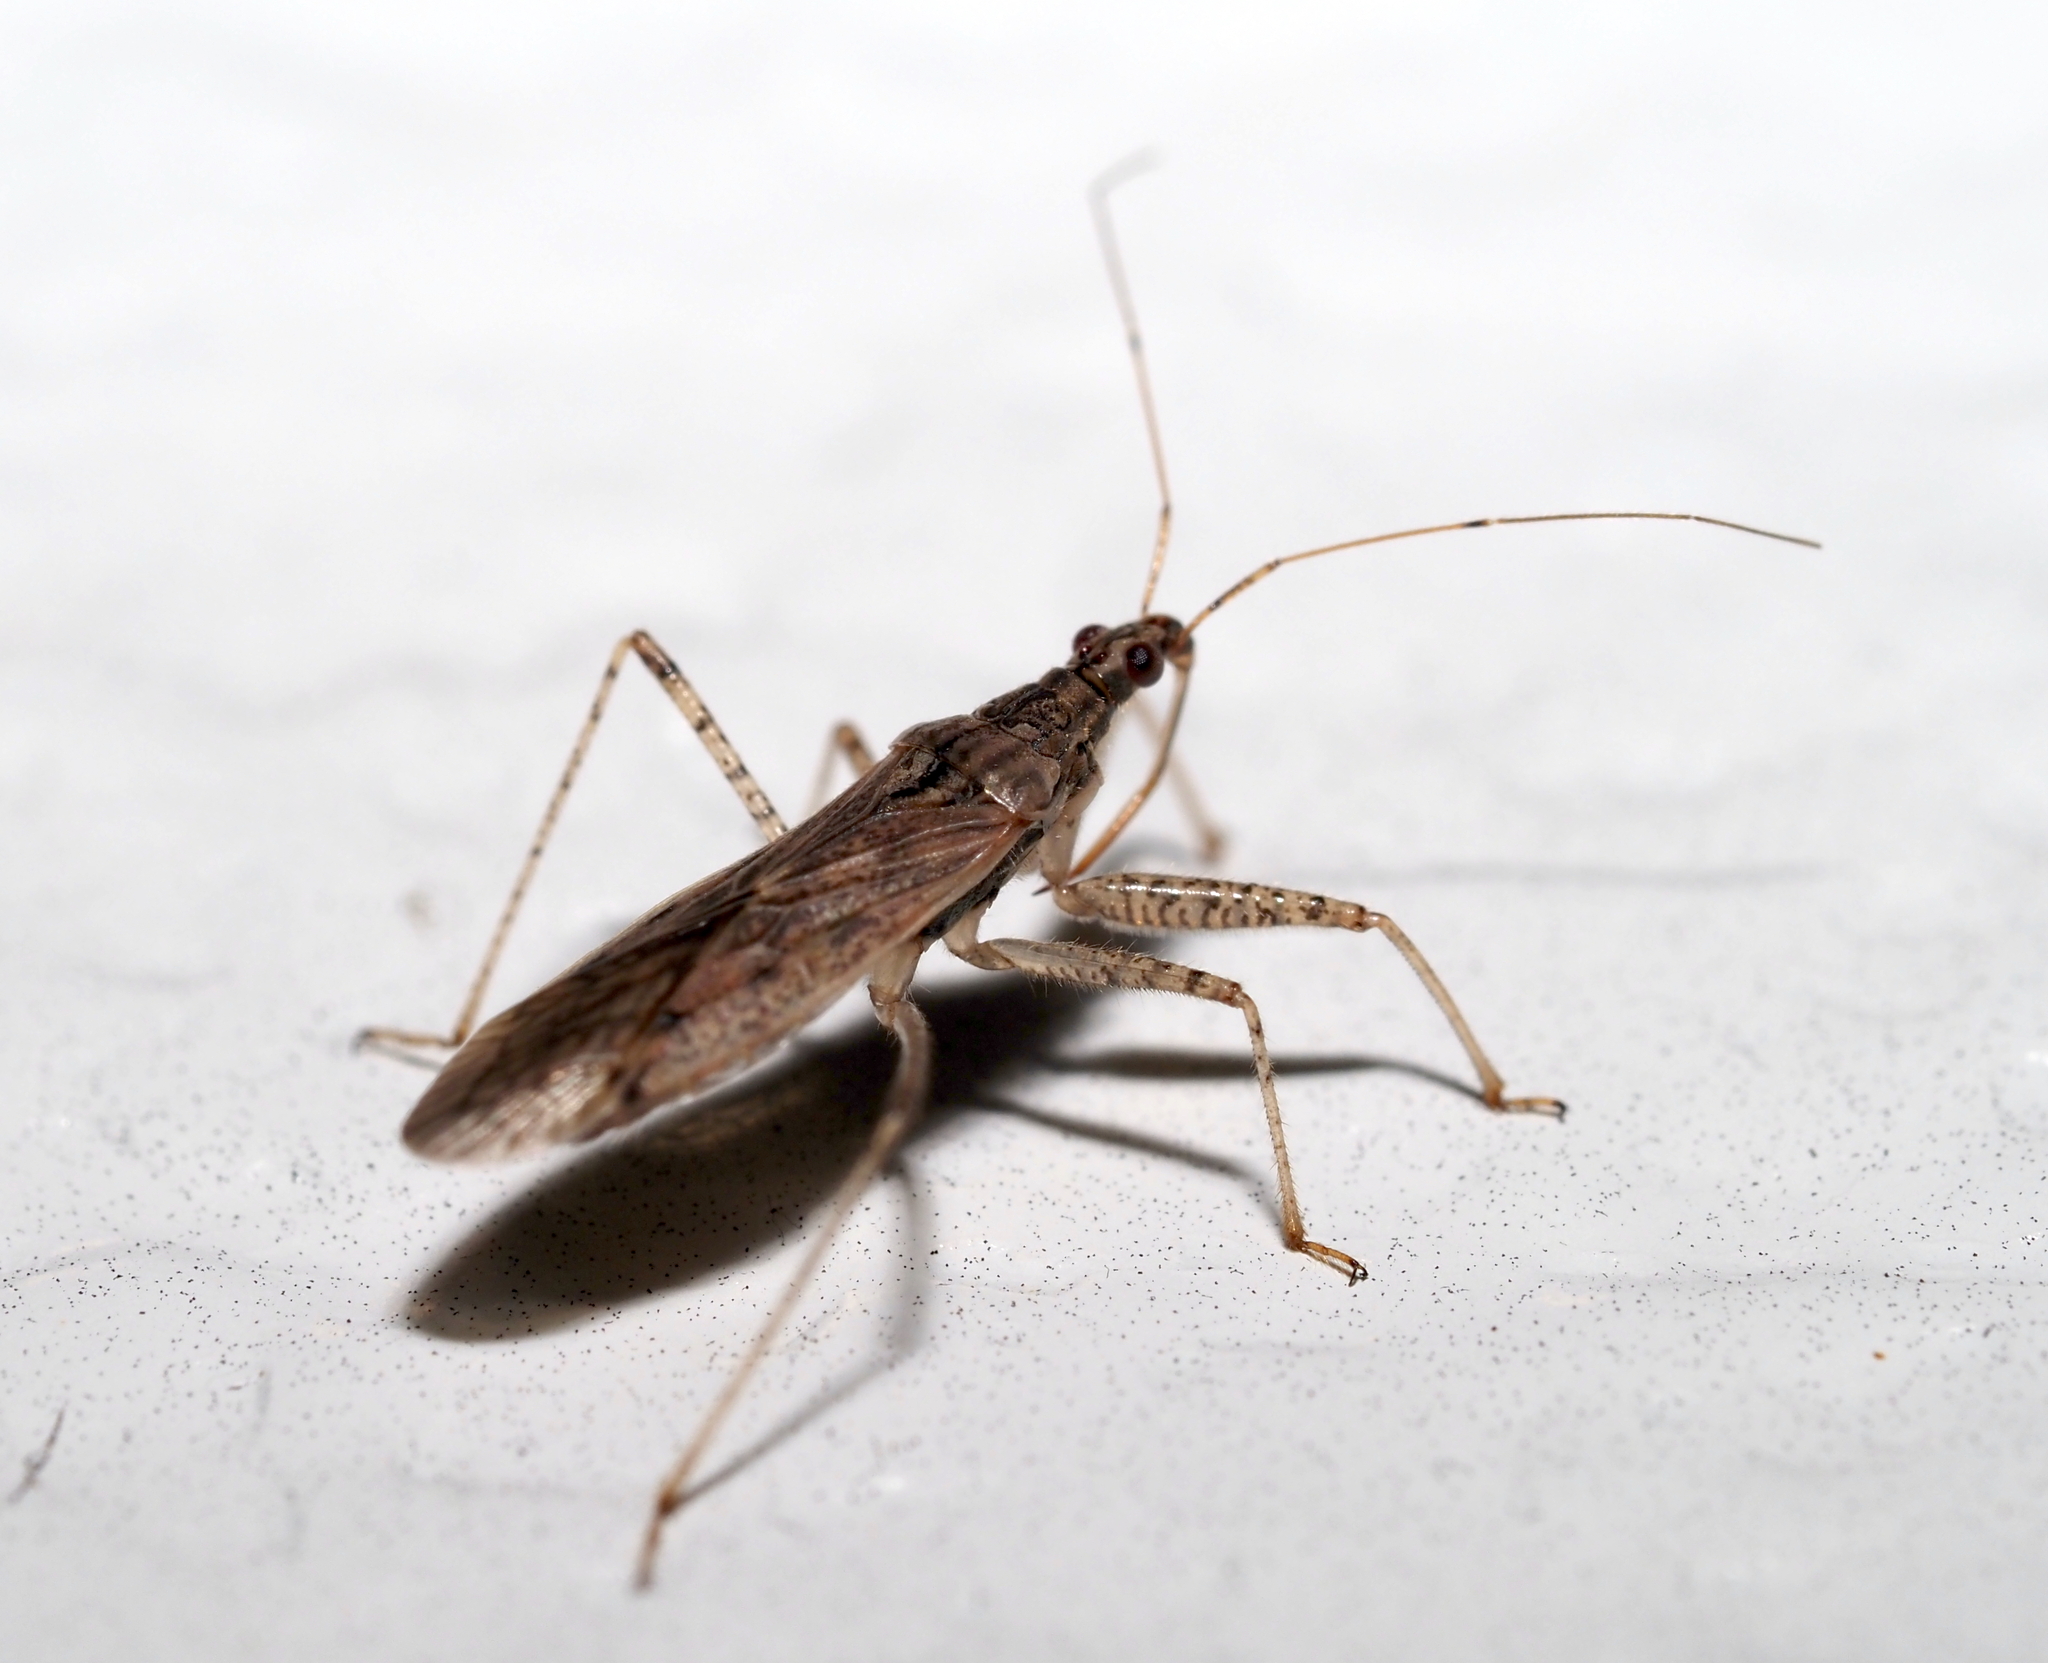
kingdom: Animalia
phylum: Arthropoda
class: Insecta
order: Hemiptera
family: Nabidae
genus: Nabis
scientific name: Nabis roseipennis
